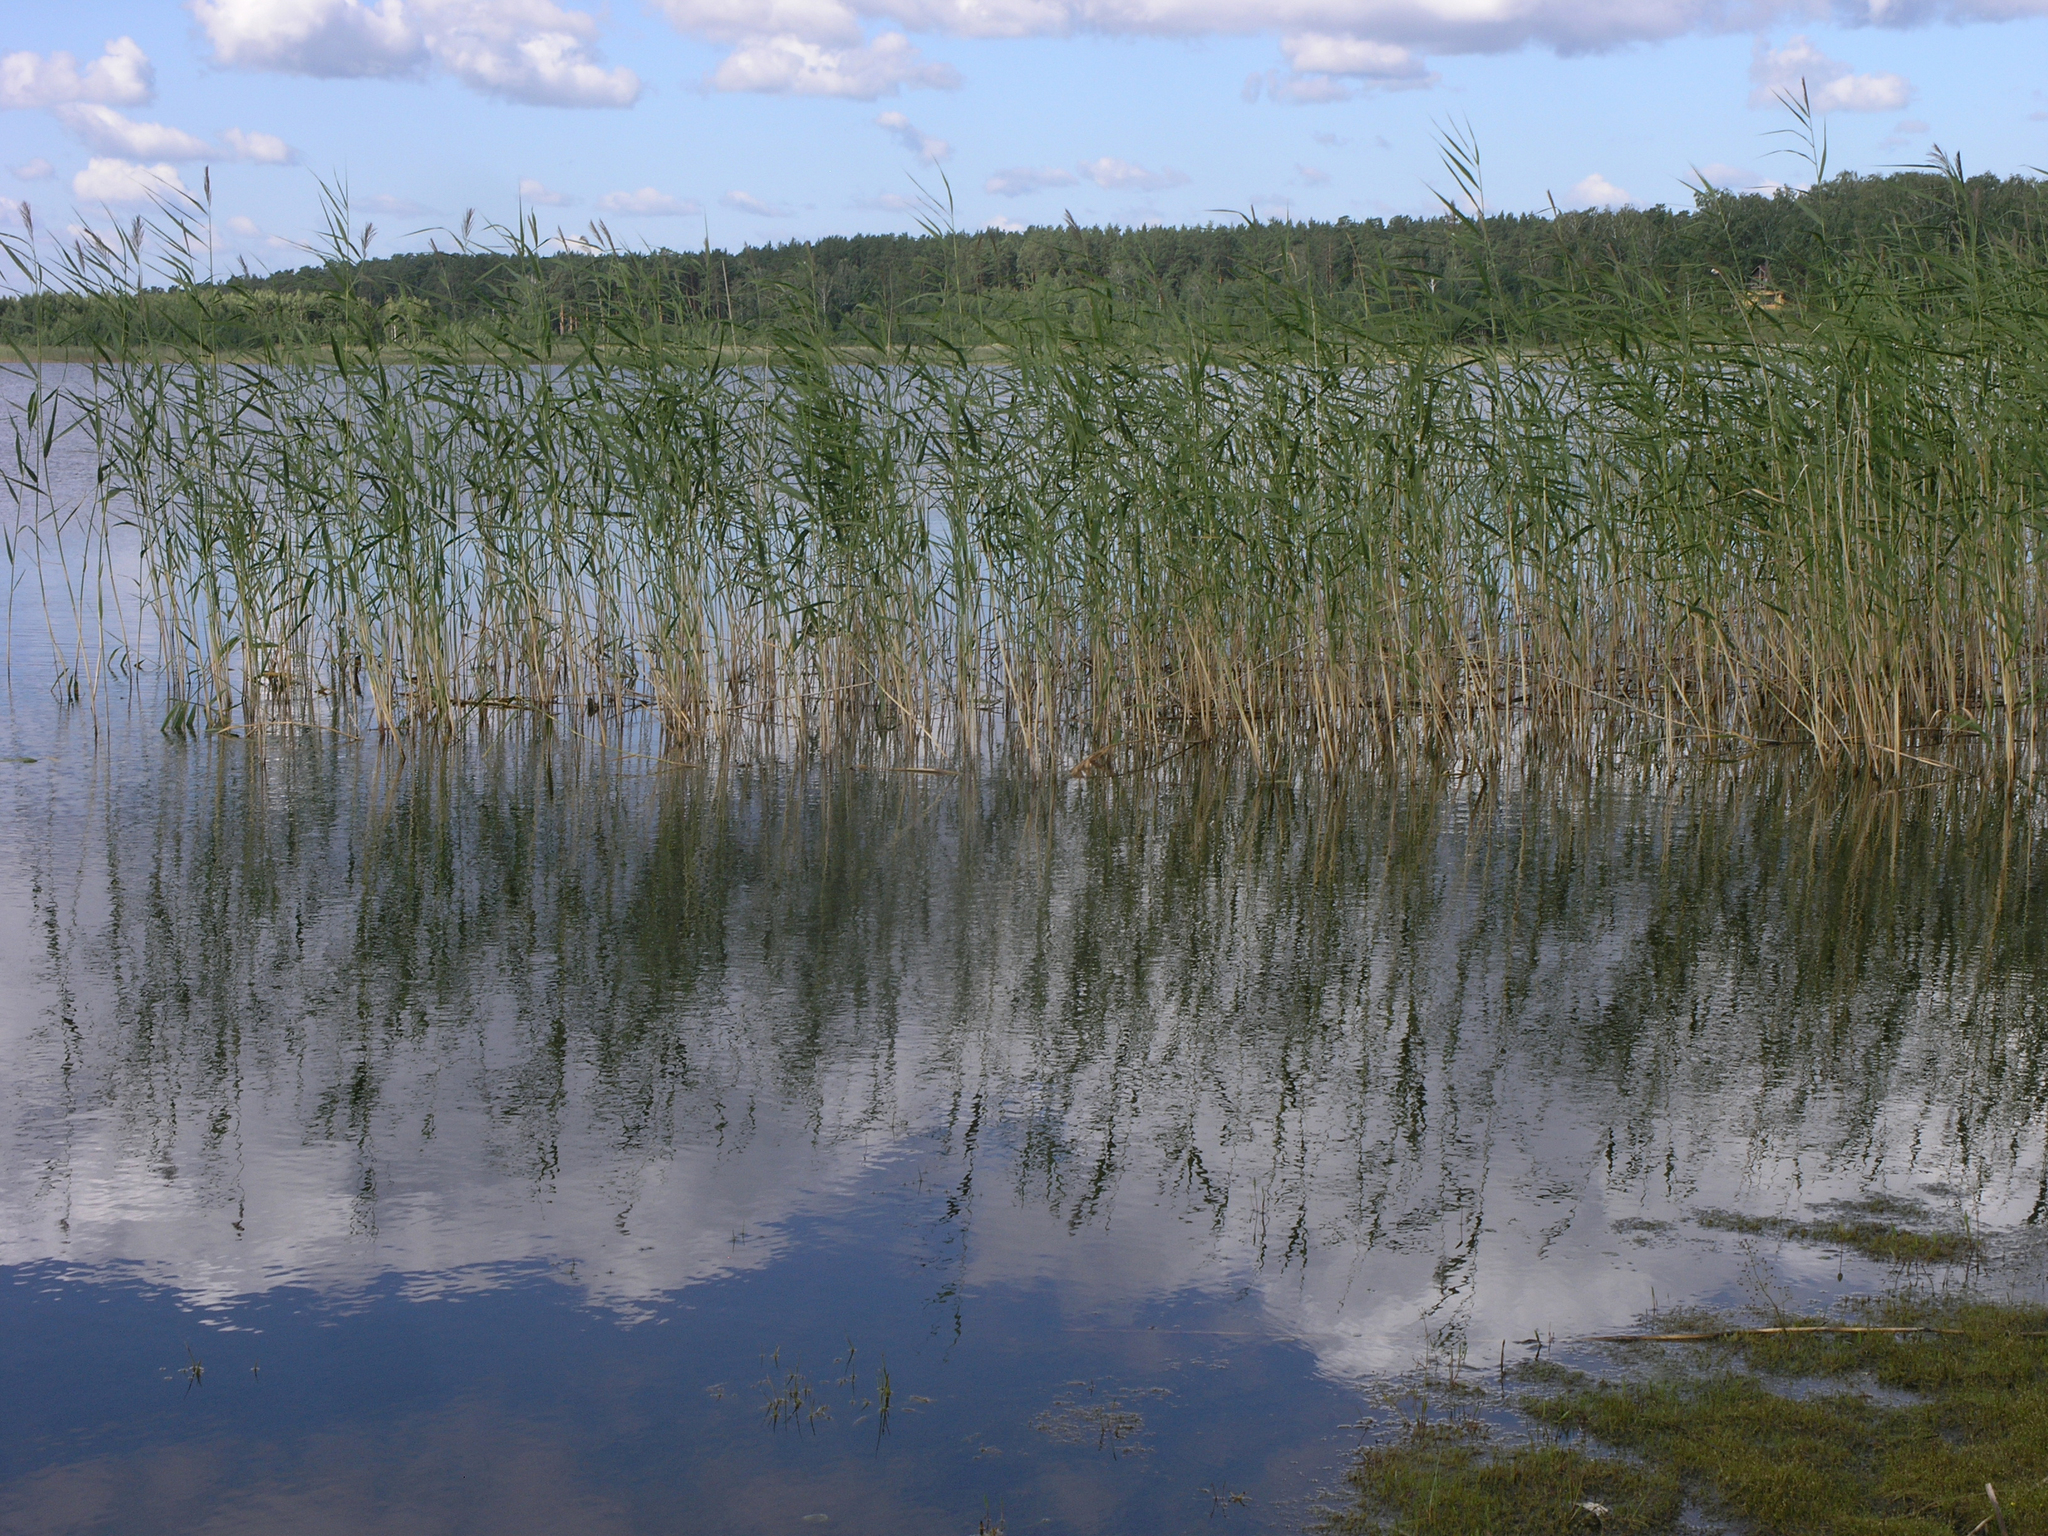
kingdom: Plantae
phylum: Tracheophyta
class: Liliopsida
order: Poales
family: Poaceae
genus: Phragmites
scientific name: Phragmites australis
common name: Common reed
